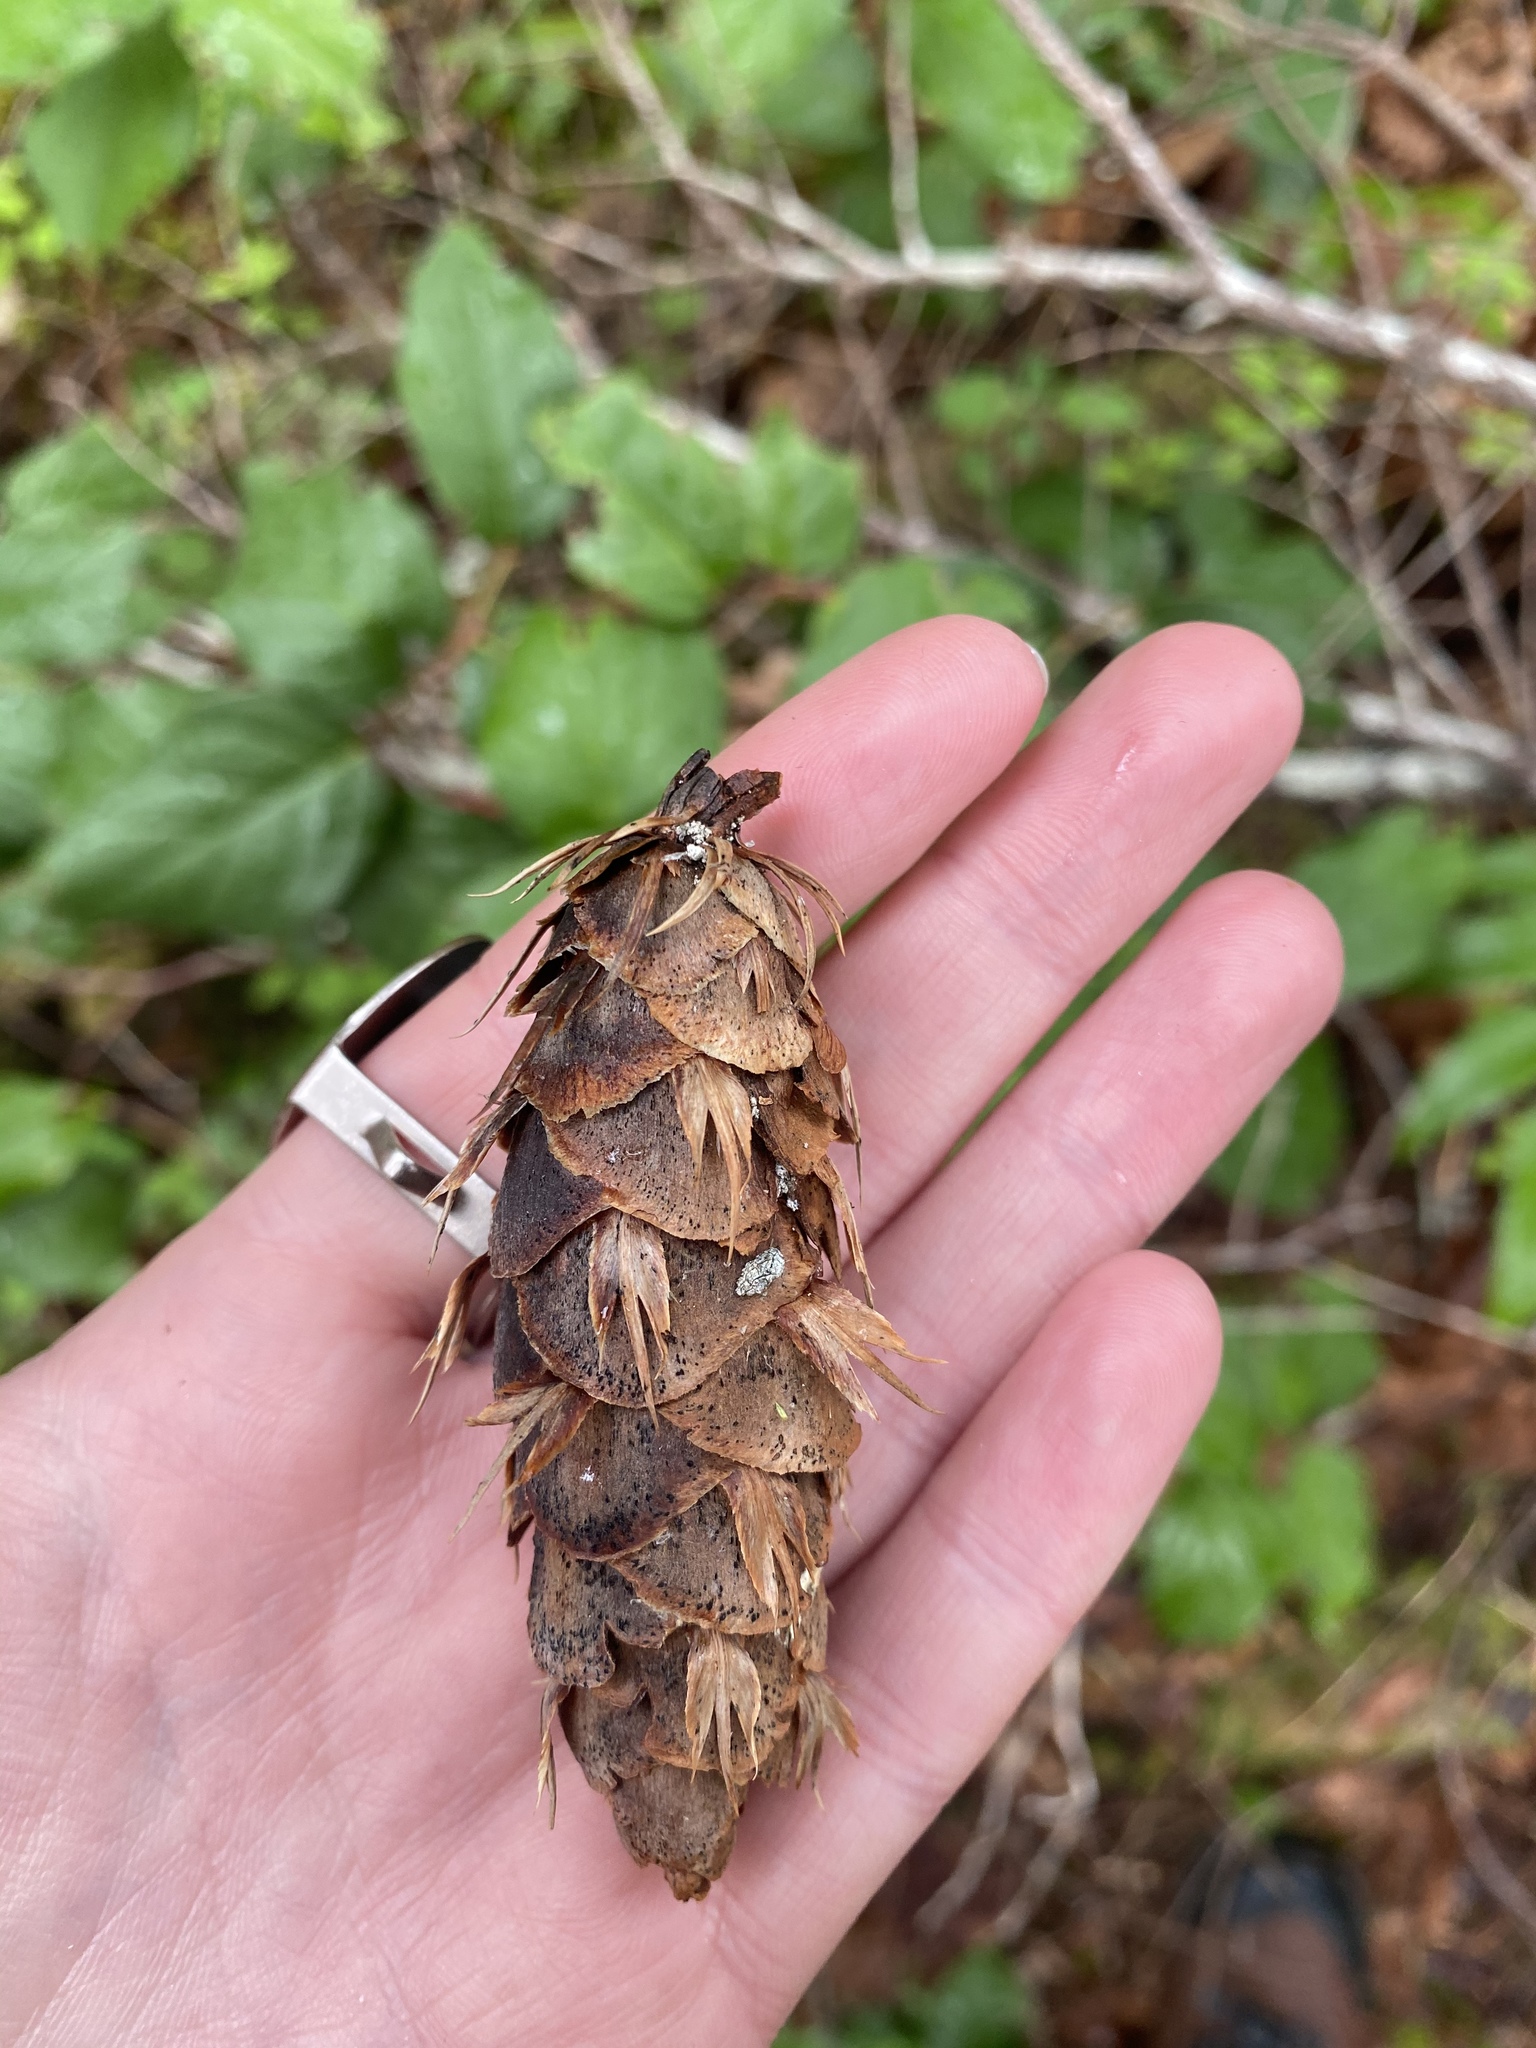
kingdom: Plantae
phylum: Tracheophyta
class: Pinopsida
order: Pinales
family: Pinaceae
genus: Pseudotsuga
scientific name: Pseudotsuga menziesii
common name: Douglas fir
